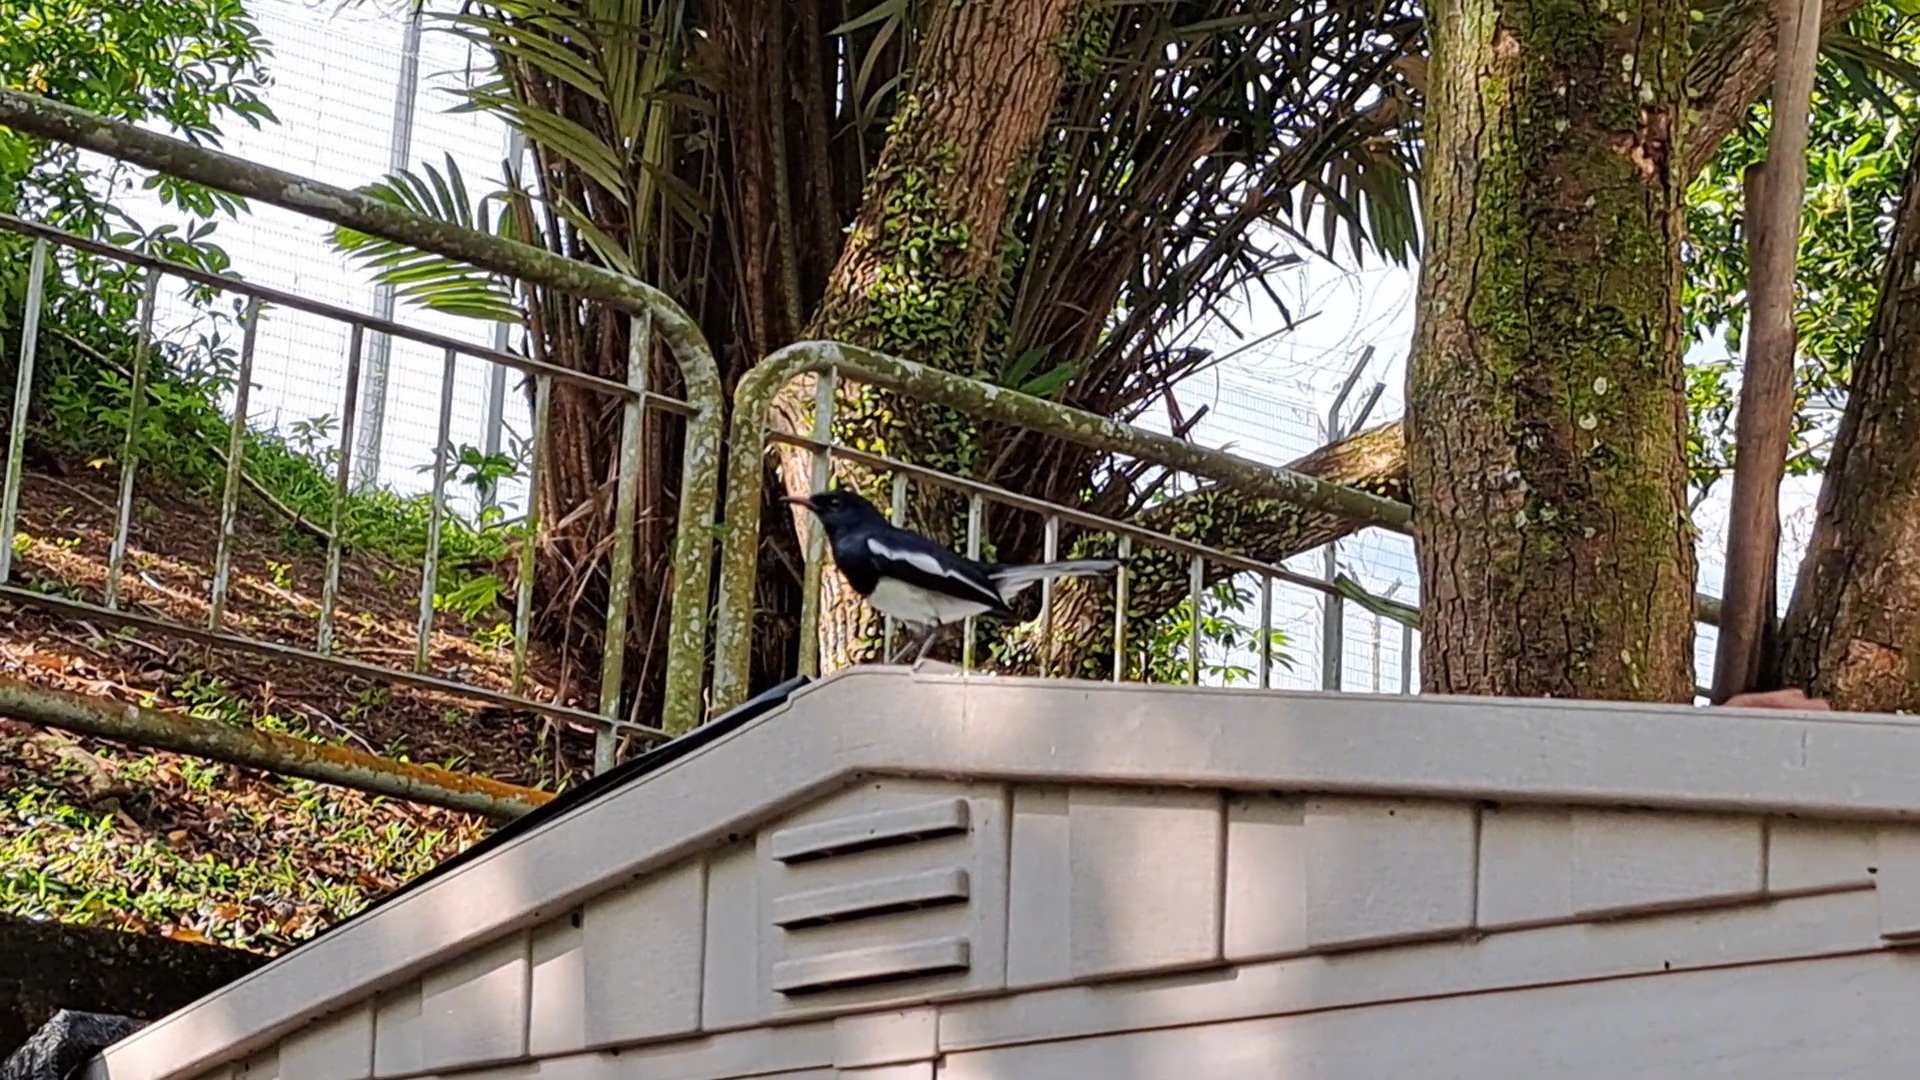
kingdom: Animalia
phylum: Chordata
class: Aves
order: Passeriformes
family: Muscicapidae
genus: Copsychus
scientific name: Copsychus saularis
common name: Oriental magpie-robin
